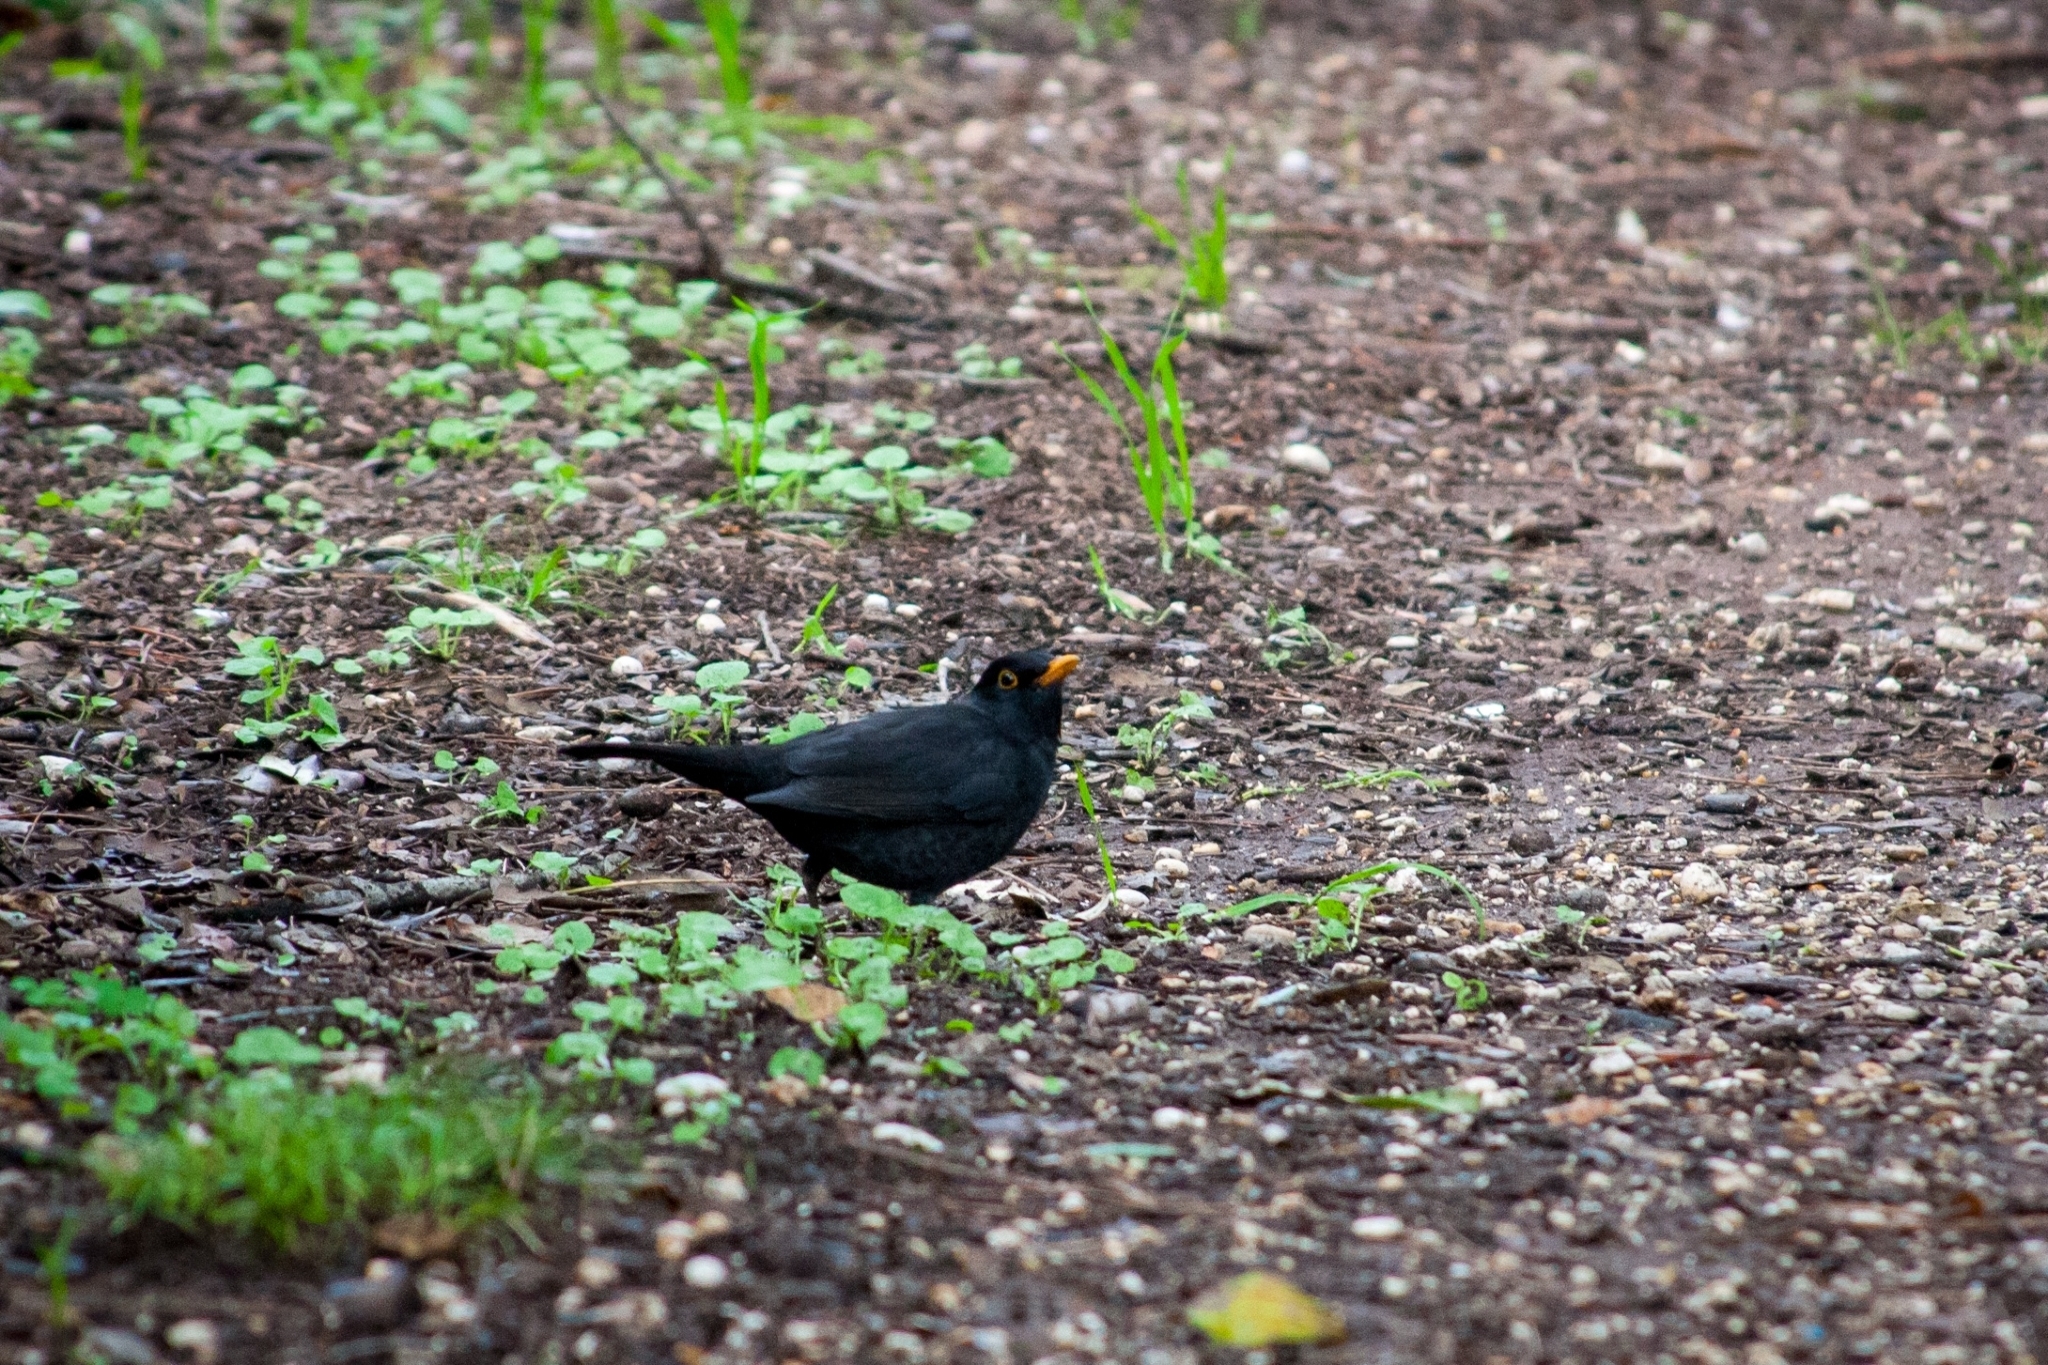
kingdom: Animalia
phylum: Chordata
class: Aves
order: Passeriformes
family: Turdidae
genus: Turdus
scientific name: Turdus merula
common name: Common blackbird
